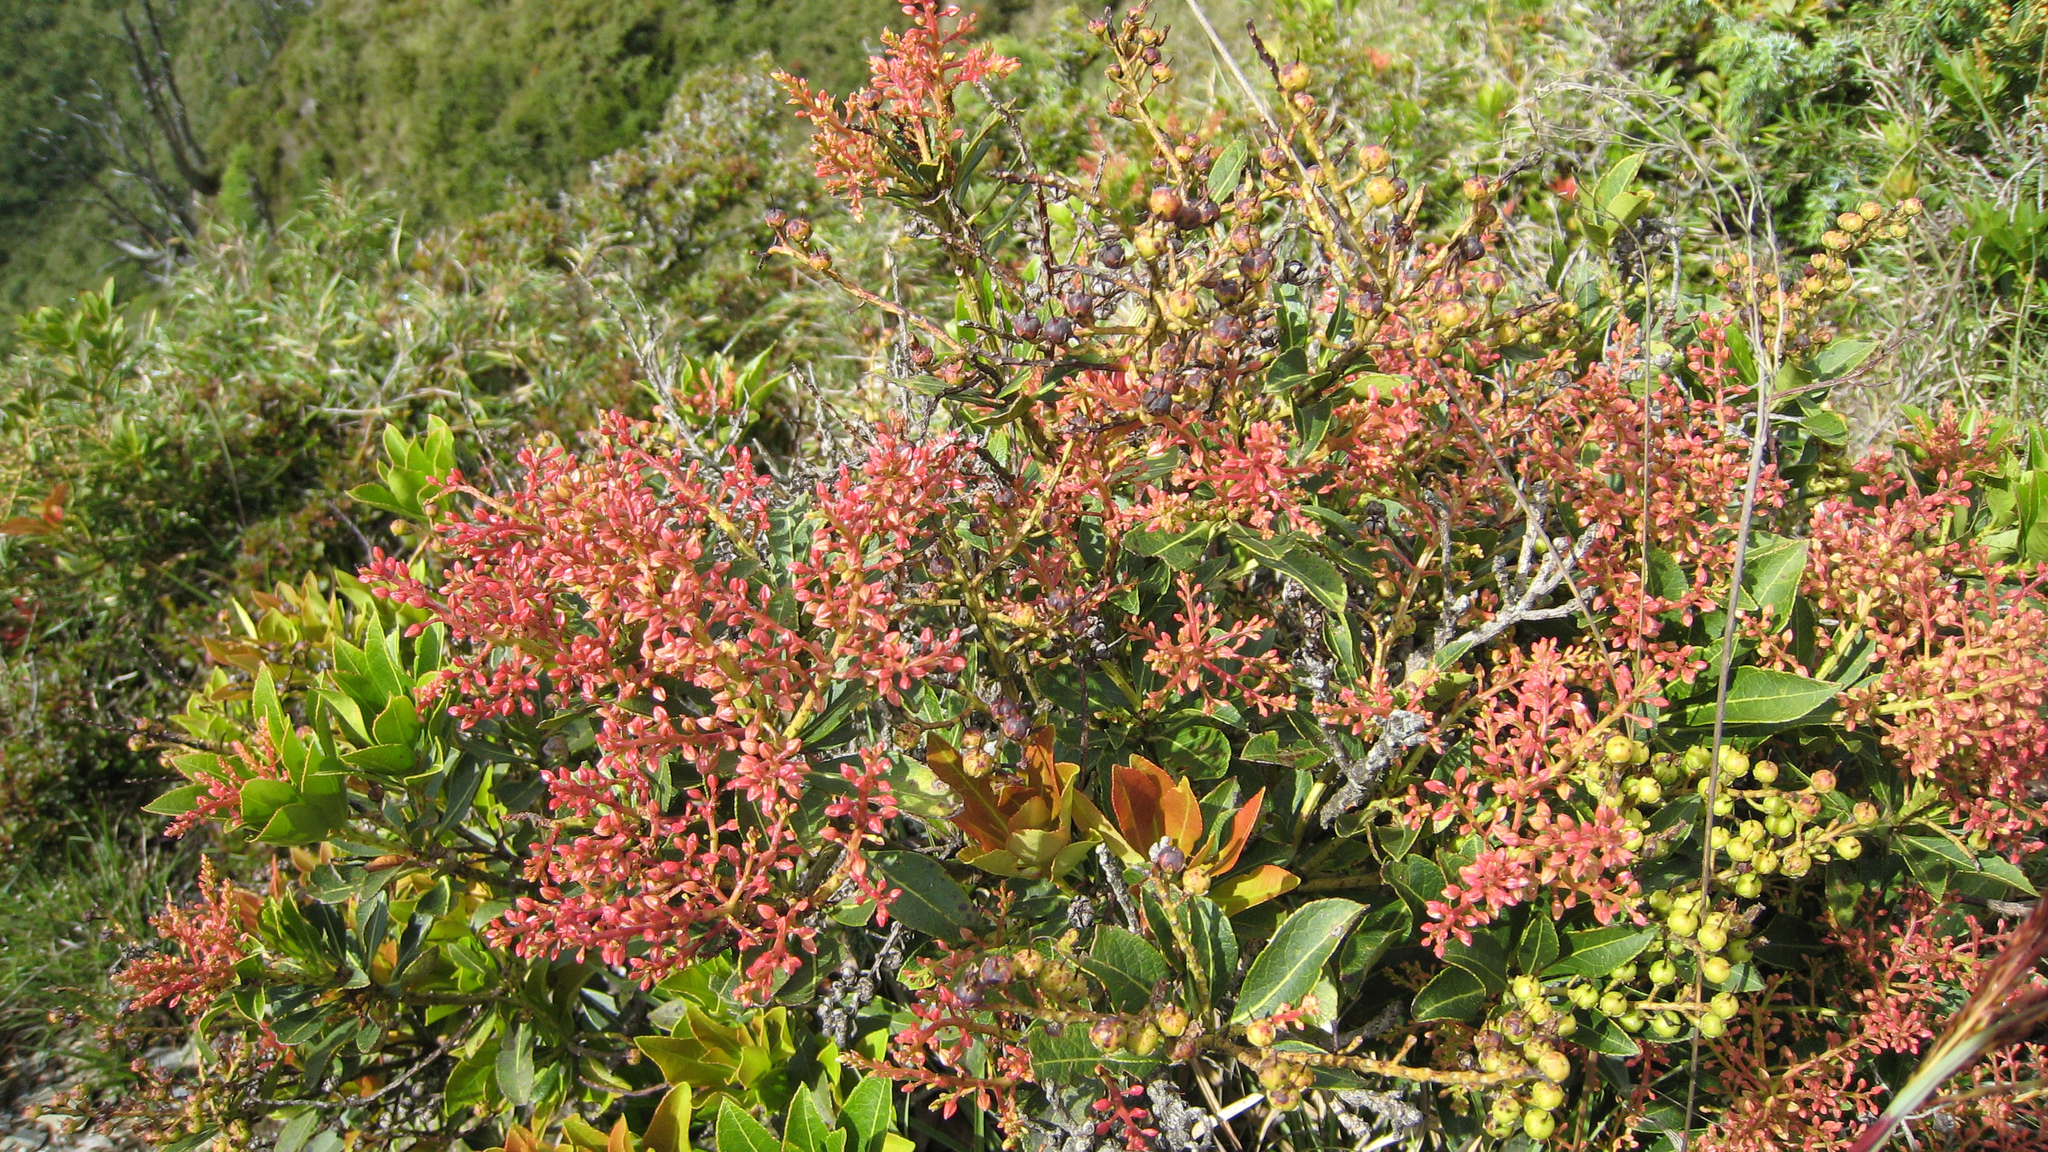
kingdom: Plantae
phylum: Tracheophyta
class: Magnoliopsida
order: Ericales
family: Ericaceae
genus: Pieris
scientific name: Pieris japonica
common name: Japanese pieris
